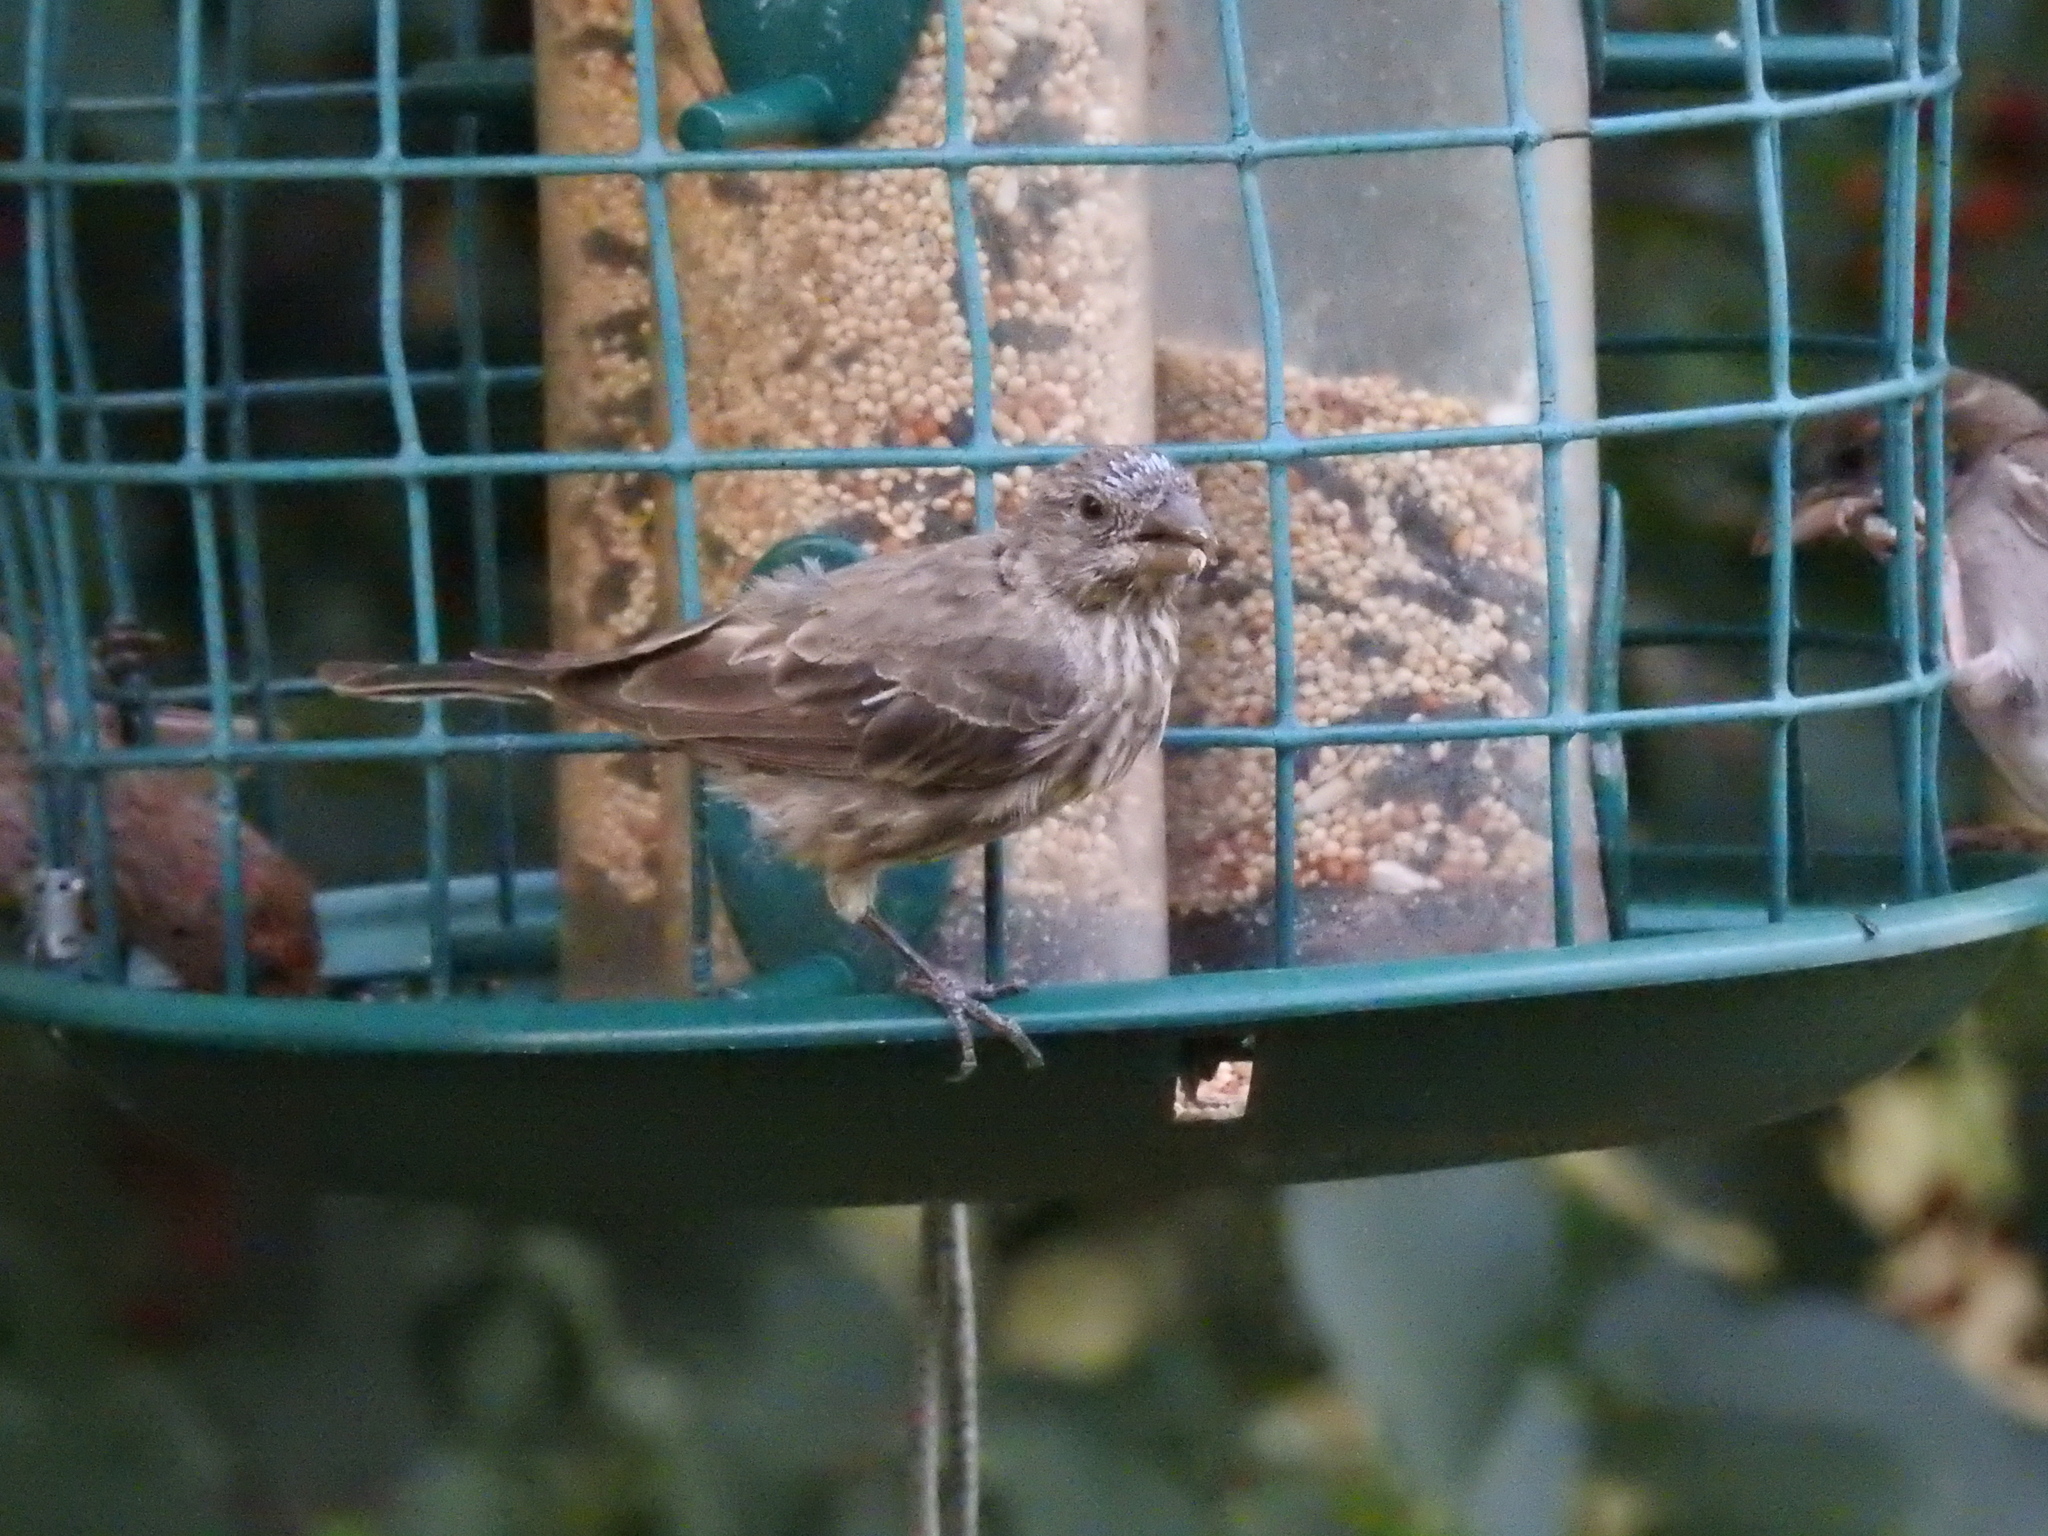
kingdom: Animalia
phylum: Chordata
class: Aves
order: Passeriformes
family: Fringillidae
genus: Haemorhous
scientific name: Haemorhous mexicanus
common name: House finch
